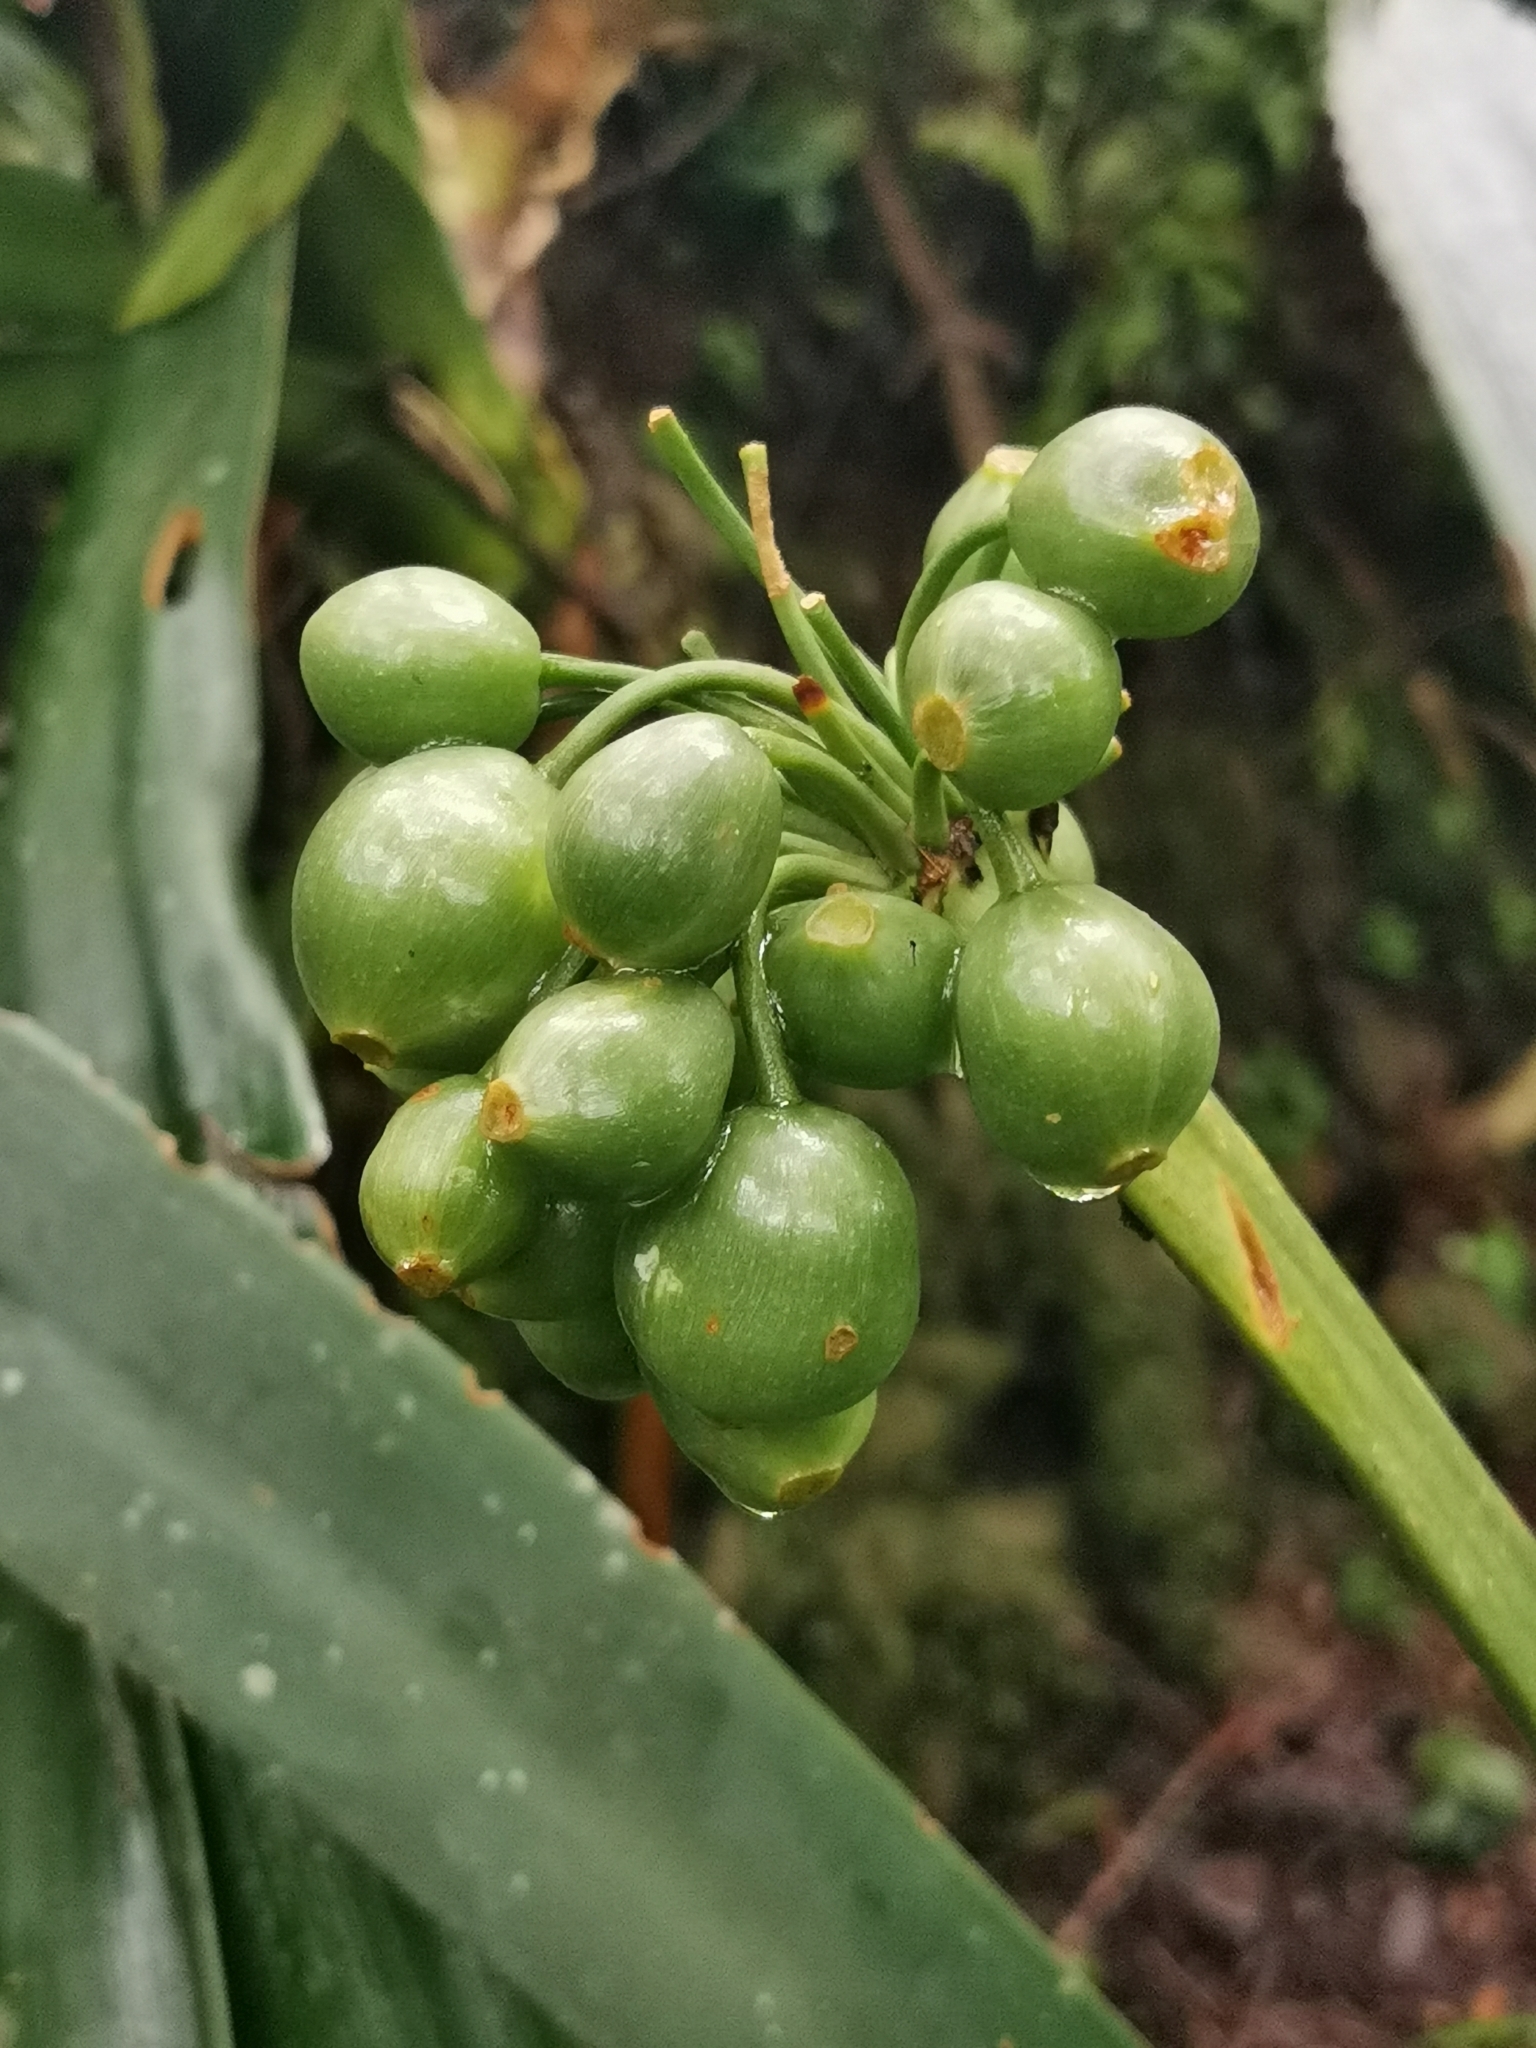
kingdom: Plantae
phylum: Tracheophyta
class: Liliopsida
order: Asparagales
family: Amaryllidaceae
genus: Clivia
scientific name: Clivia caulescens
